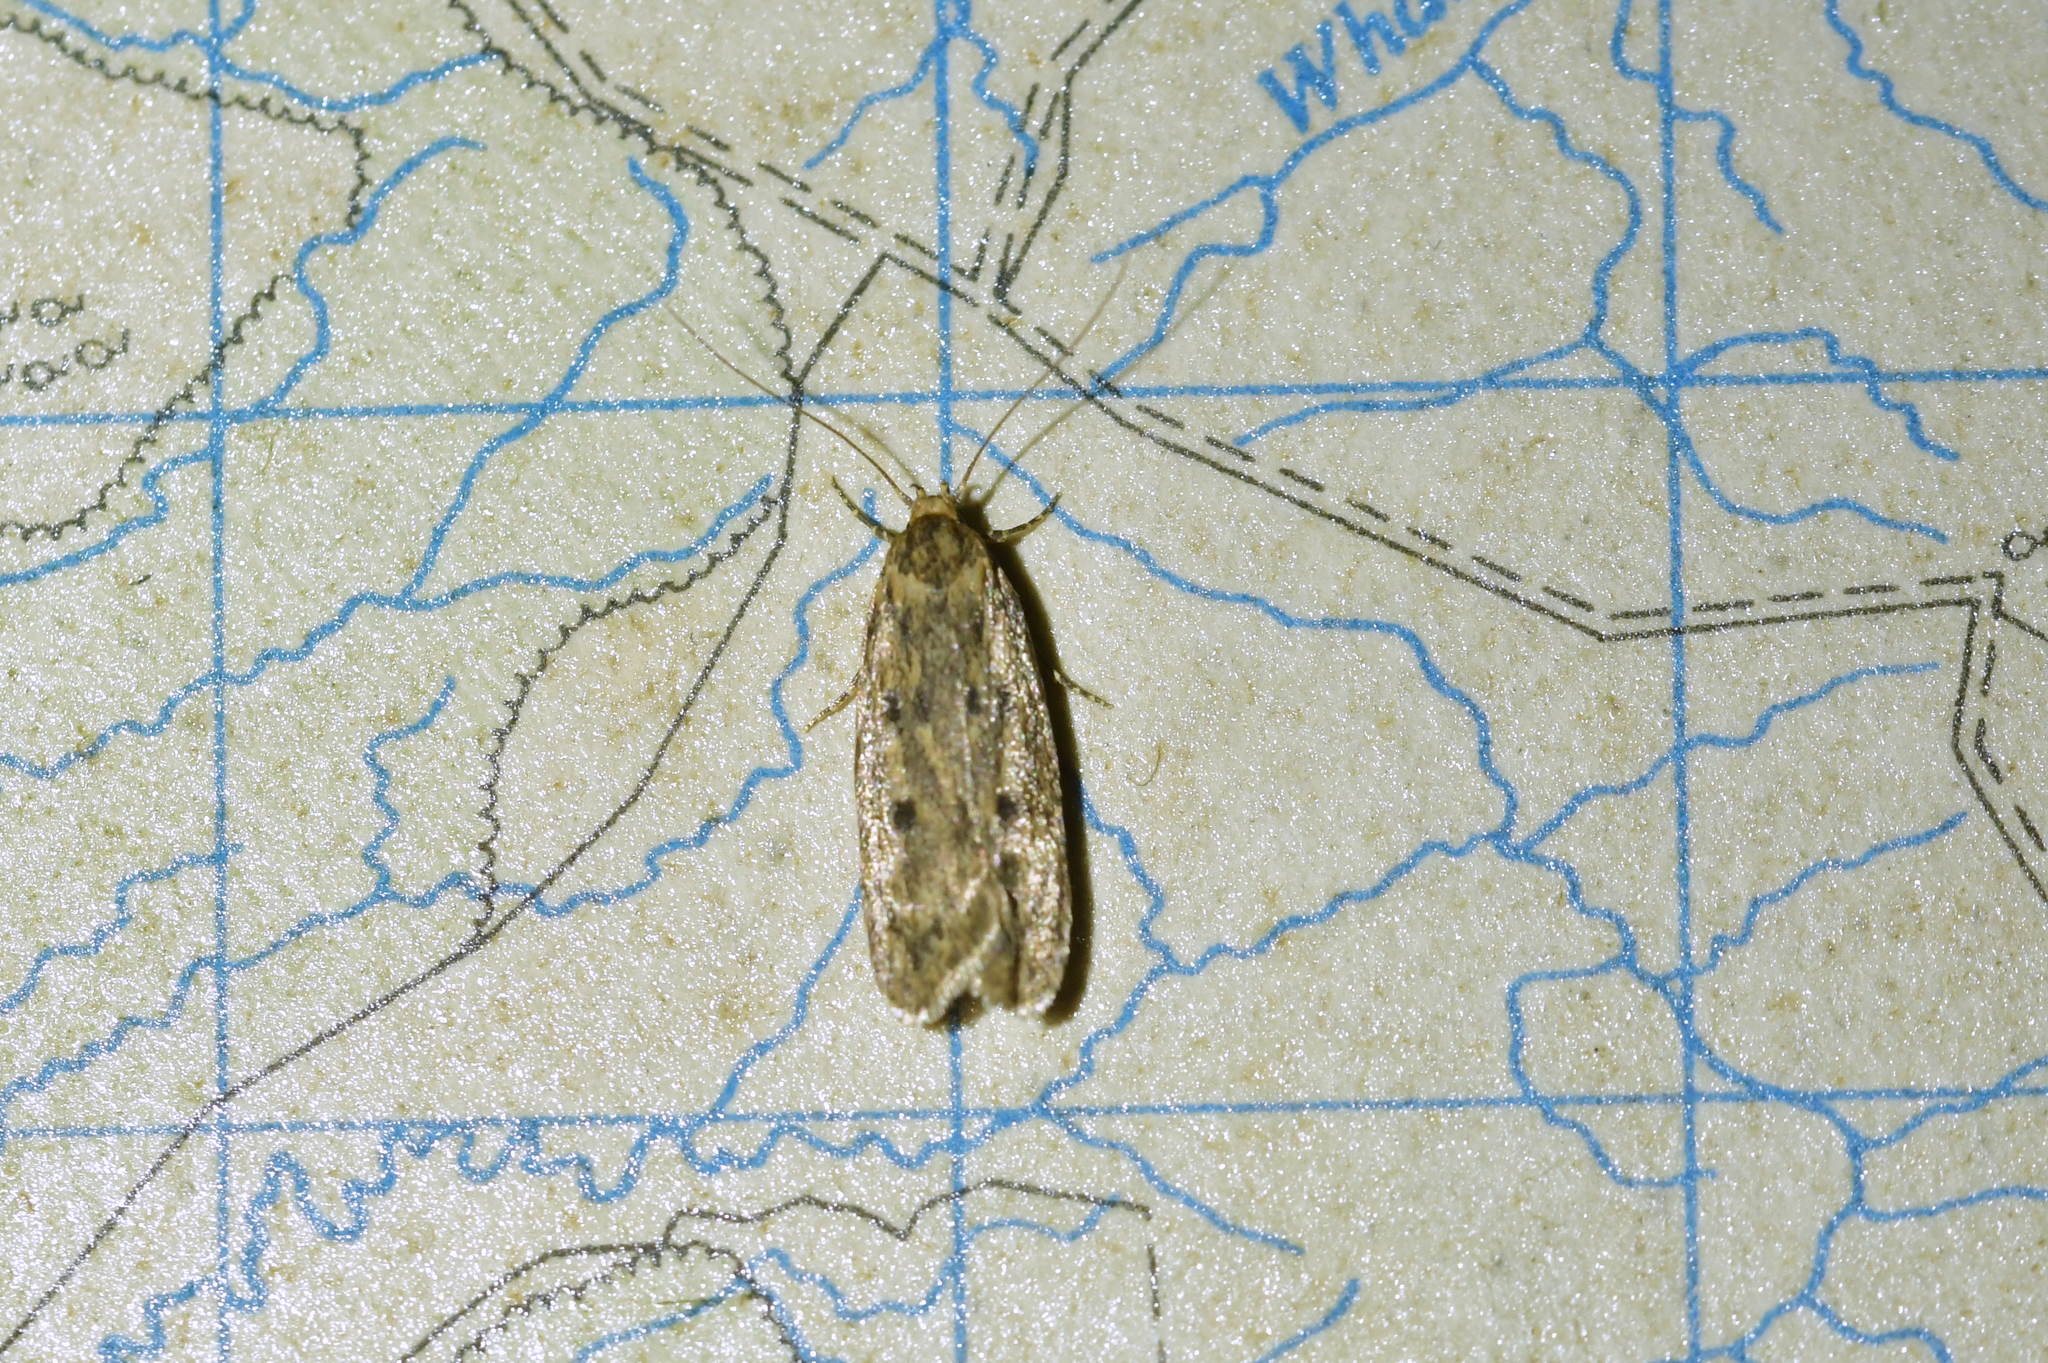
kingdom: Animalia
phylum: Arthropoda
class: Insecta
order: Lepidoptera
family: Oecophoridae
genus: Hofmannophila
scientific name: Hofmannophila pseudospretella
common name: Brown house moth
